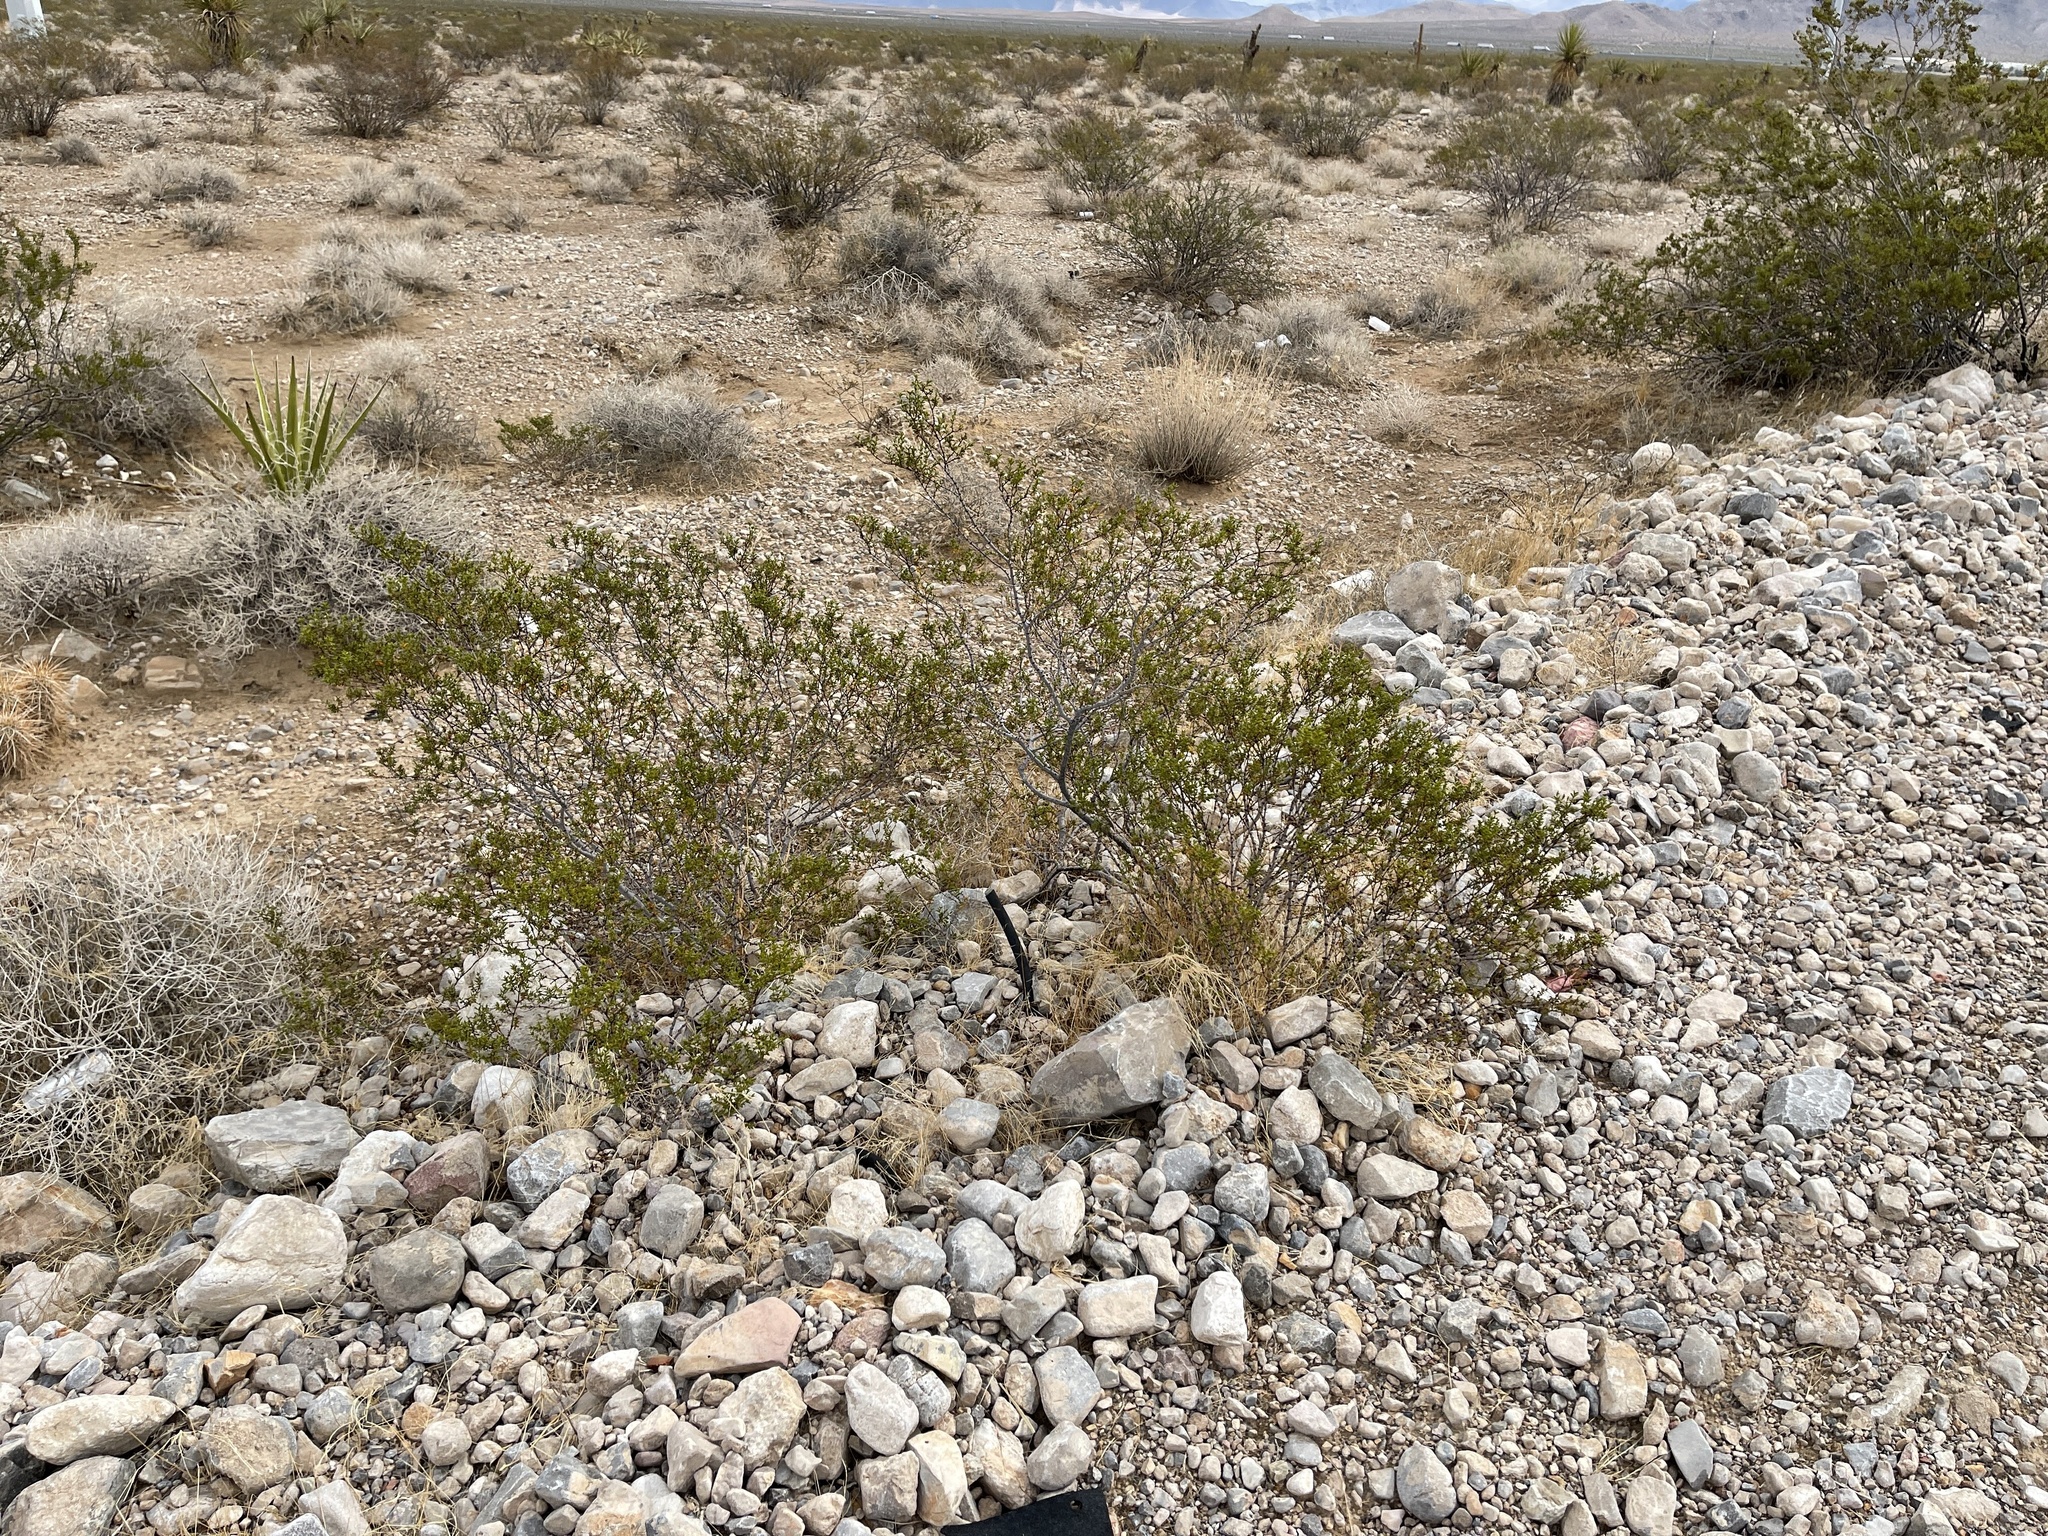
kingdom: Plantae
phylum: Tracheophyta
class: Magnoliopsida
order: Zygophyllales
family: Zygophyllaceae
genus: Larrea
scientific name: Larrea tridentata
